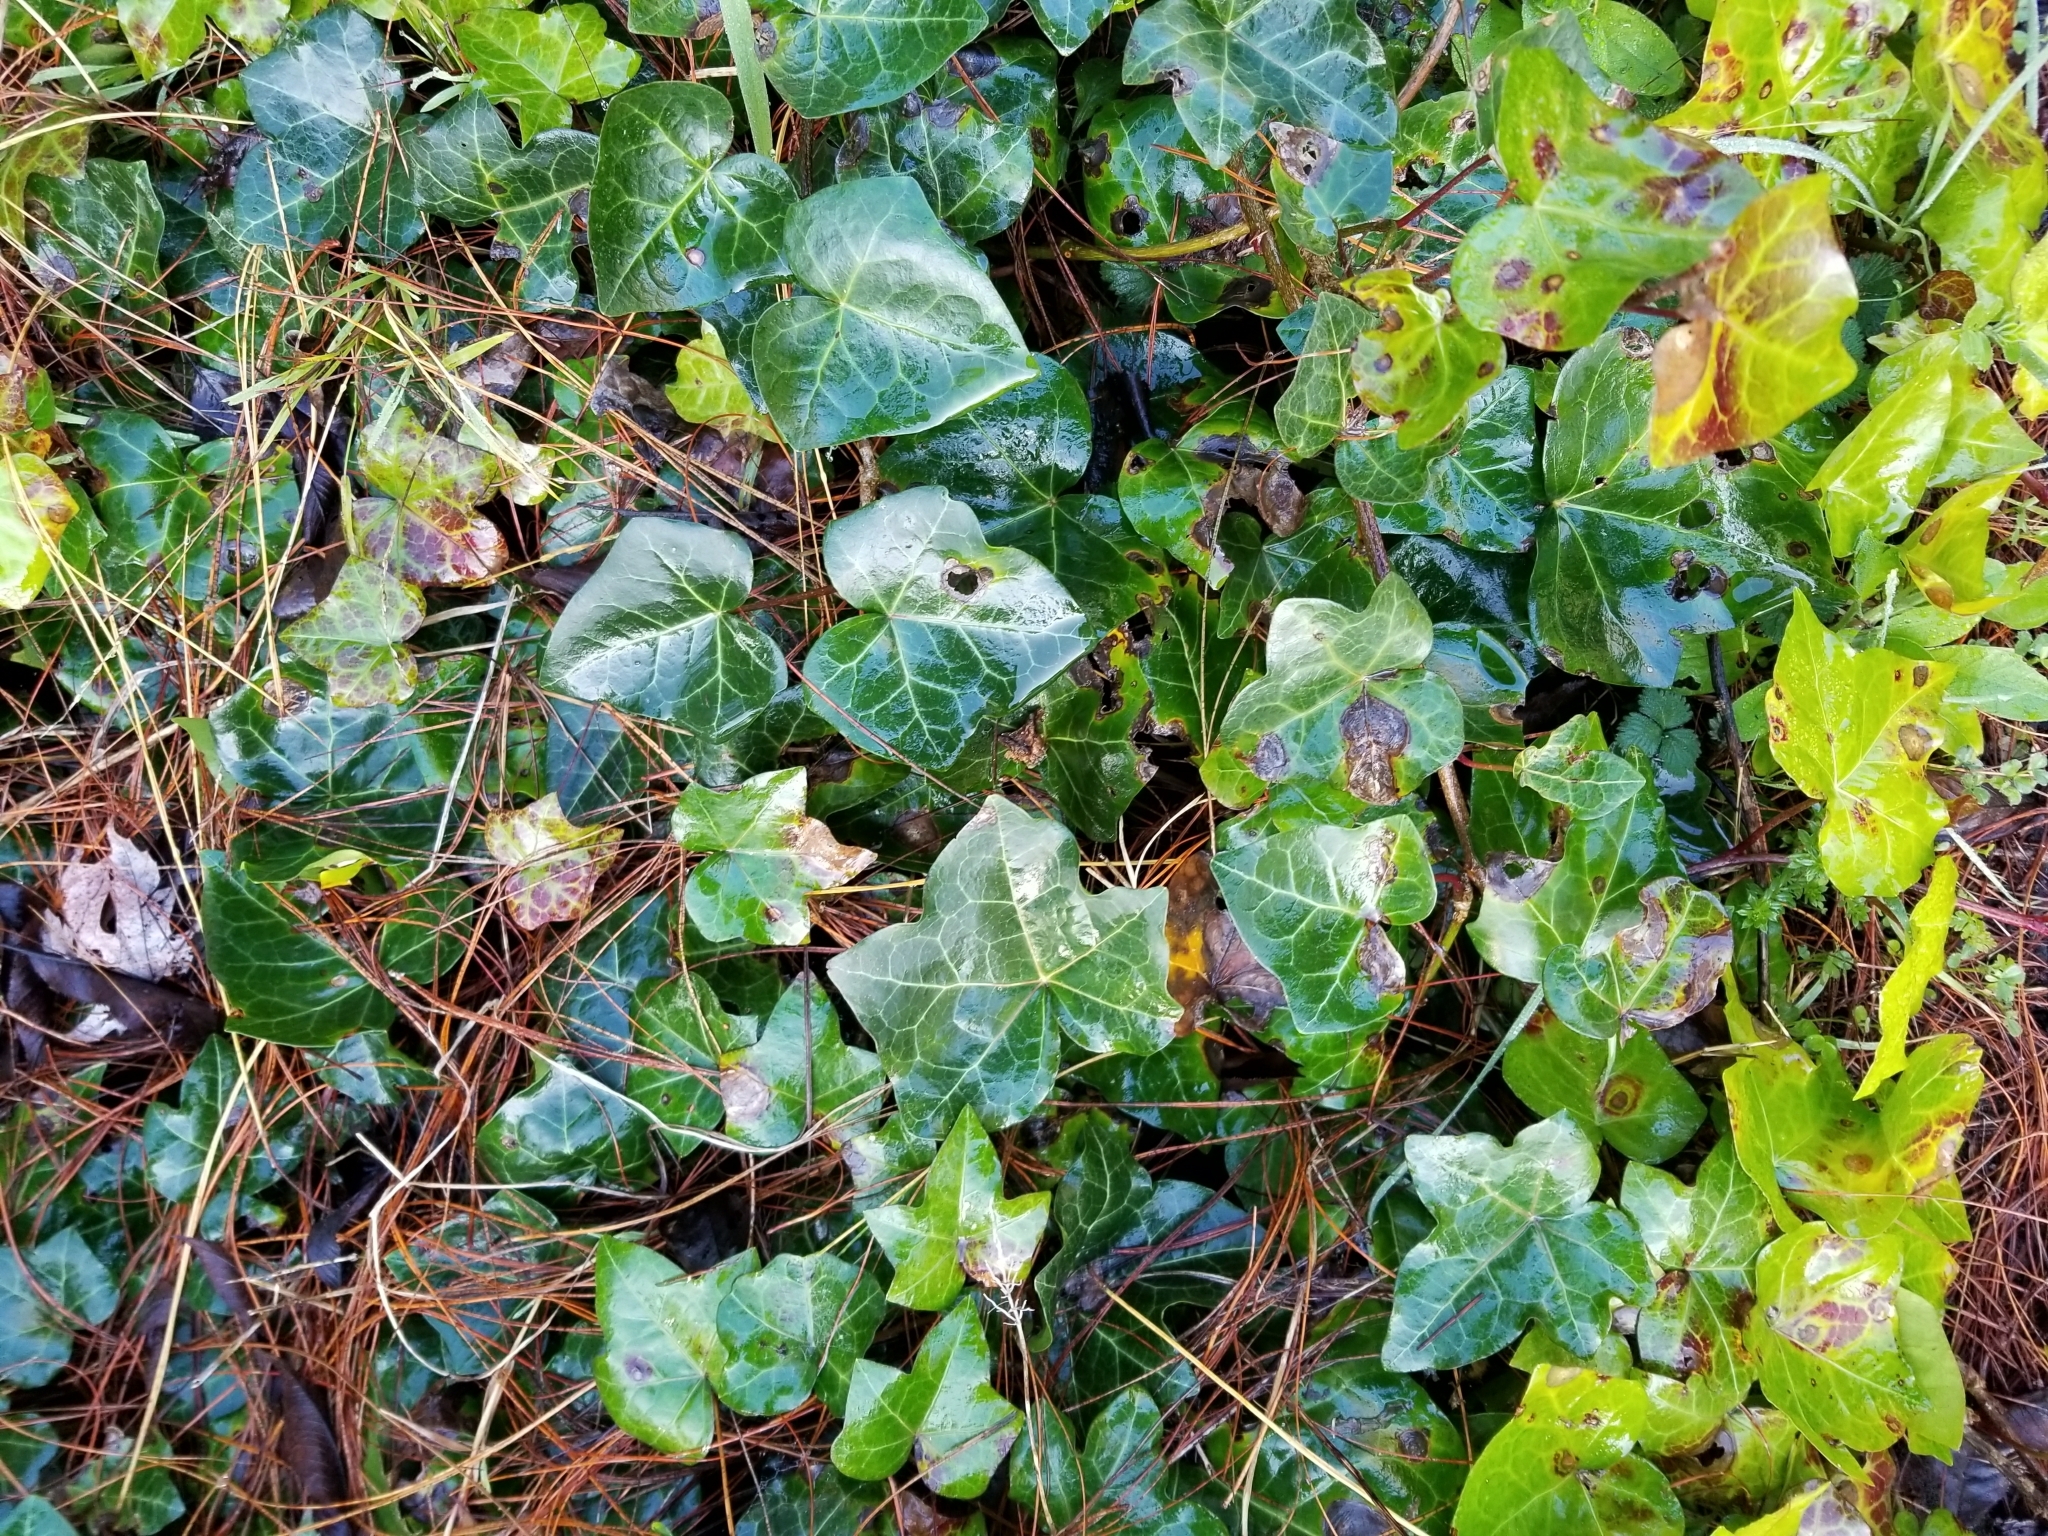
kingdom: Plantae
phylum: Tracheophyta
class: Magnoliopsida
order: Apiales
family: Araliaceae
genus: Hedera
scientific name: Hedera helix
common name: Ivy
